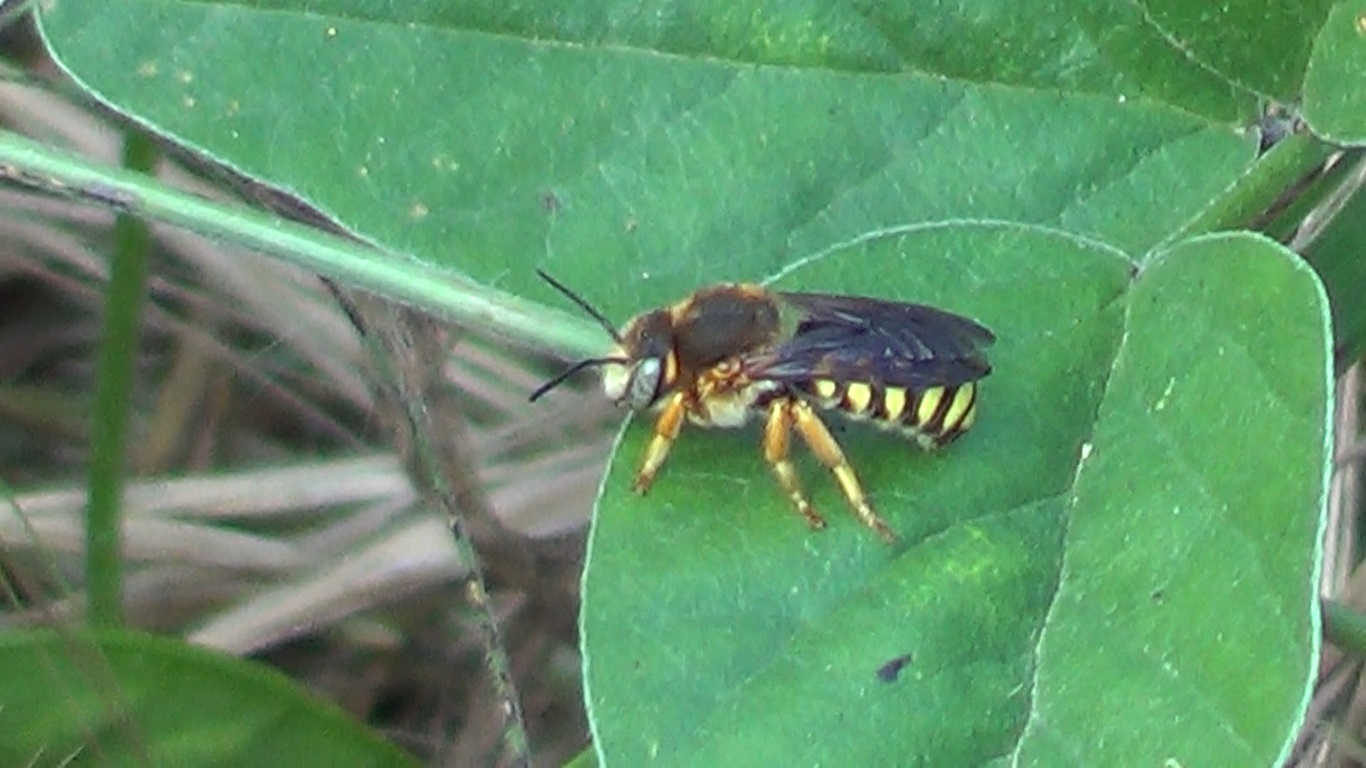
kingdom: Animalia
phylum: Arthropoda
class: Insecta
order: Hymenoptera
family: Megachilidae
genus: Rhodanthidium
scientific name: Rhodanthidium septemdentatum
